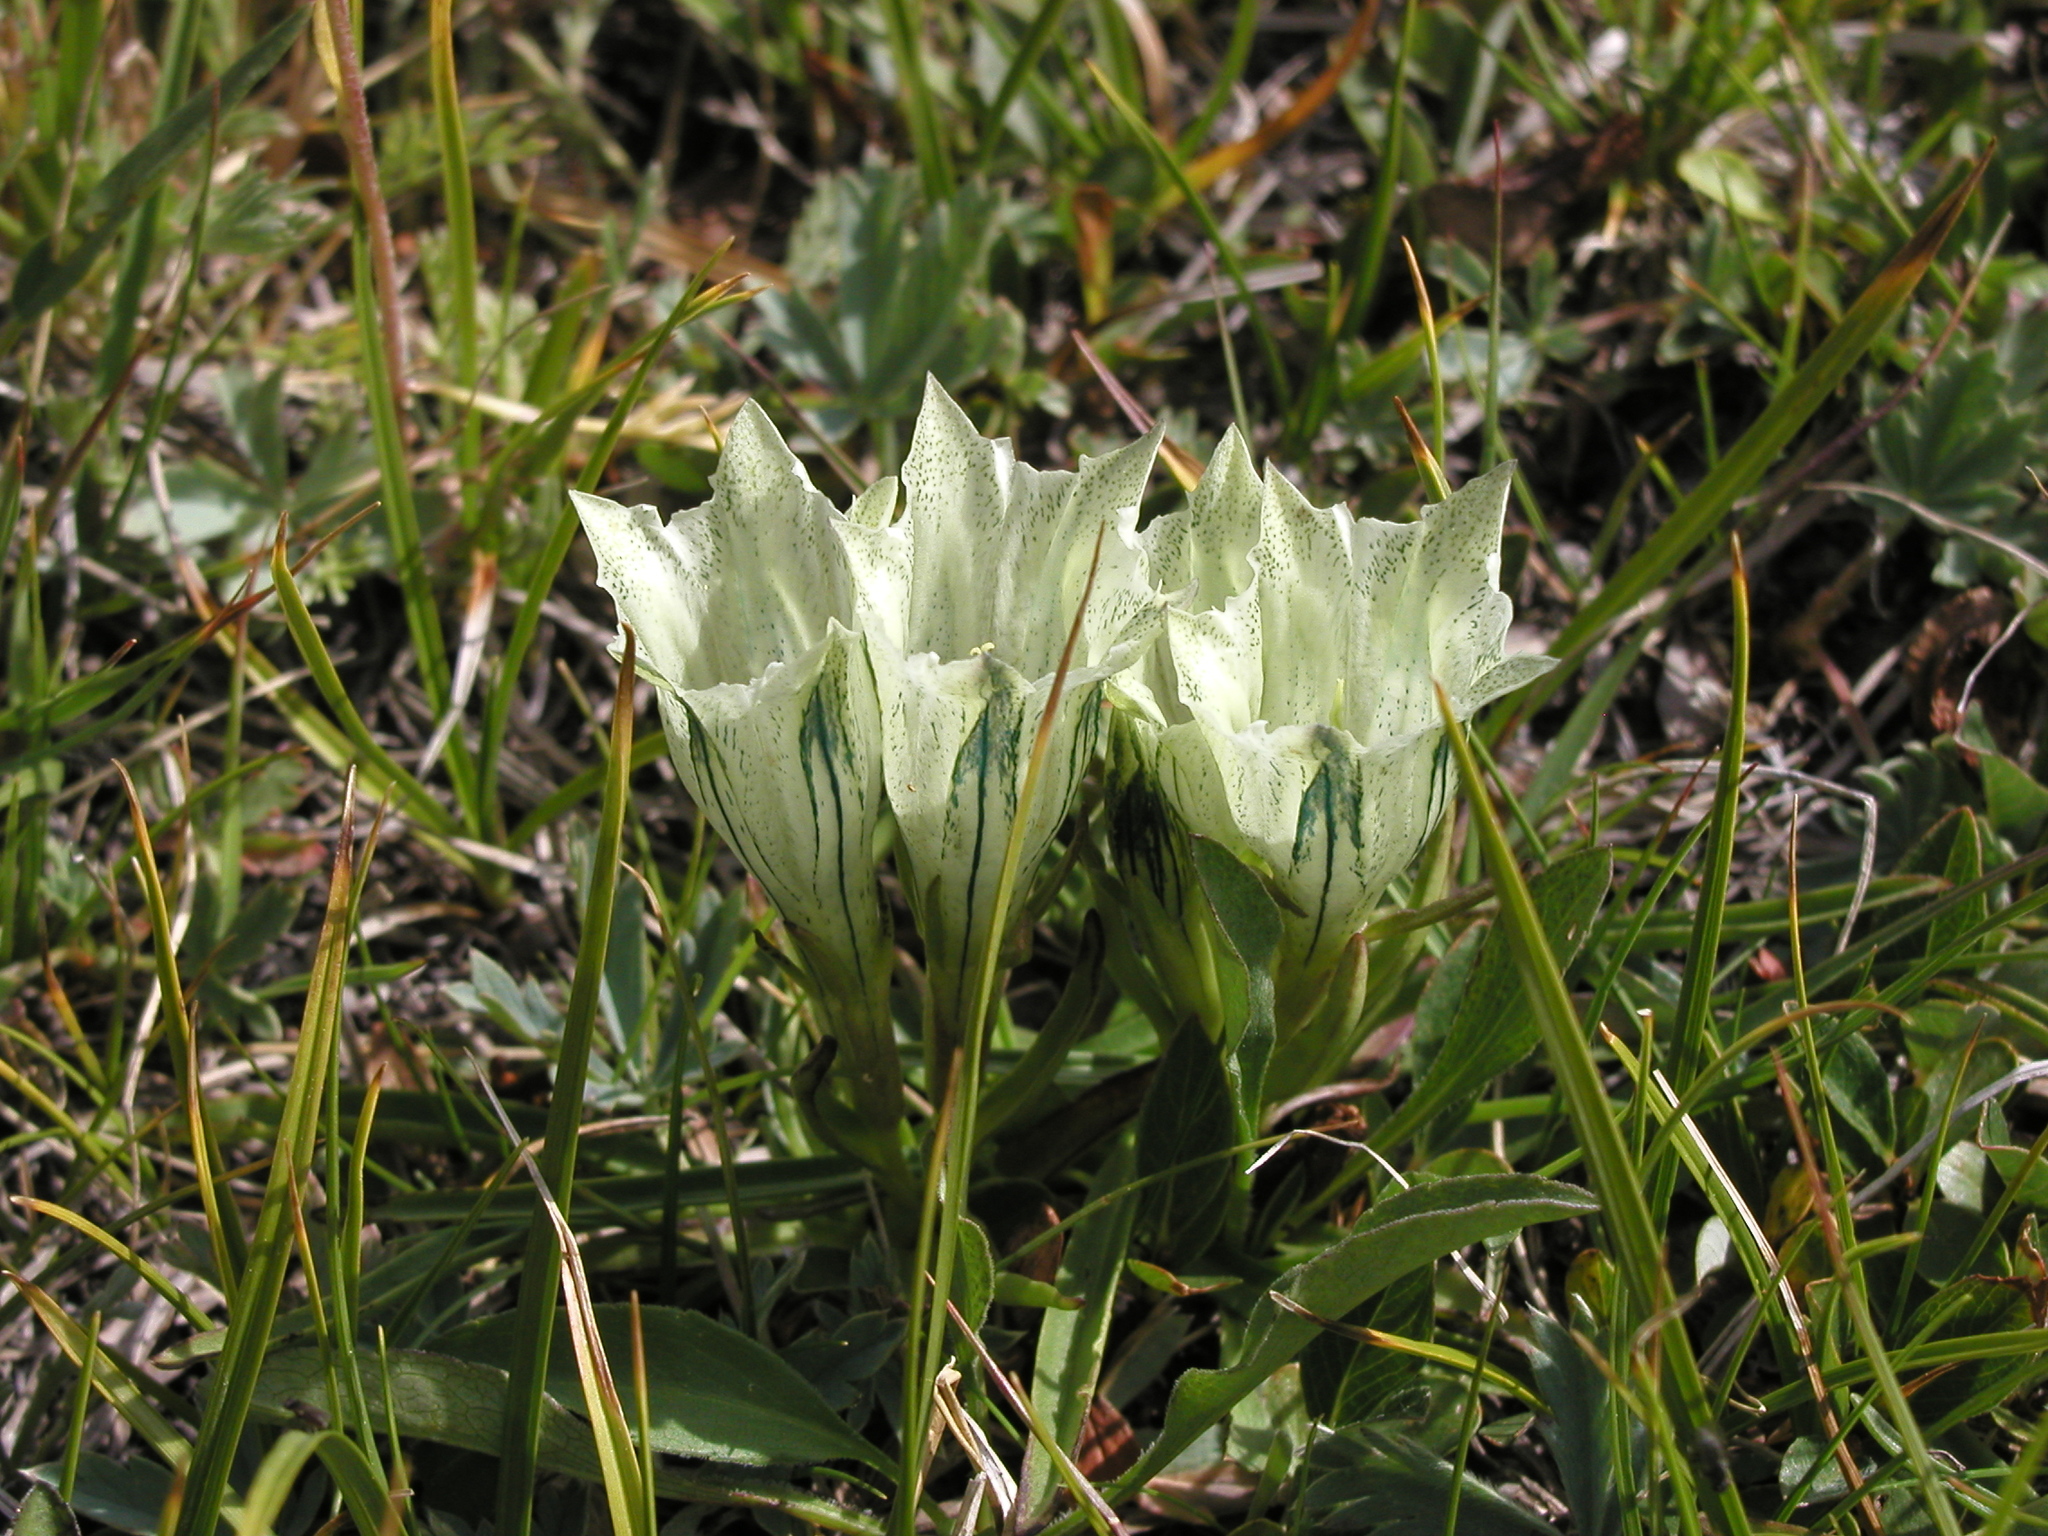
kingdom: Plantae
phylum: Tracheophyta
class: Magnoliopsida
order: Gentianales
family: Gentianaceae
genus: Gentiana
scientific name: Gentiana algida
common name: Arctic gentian
